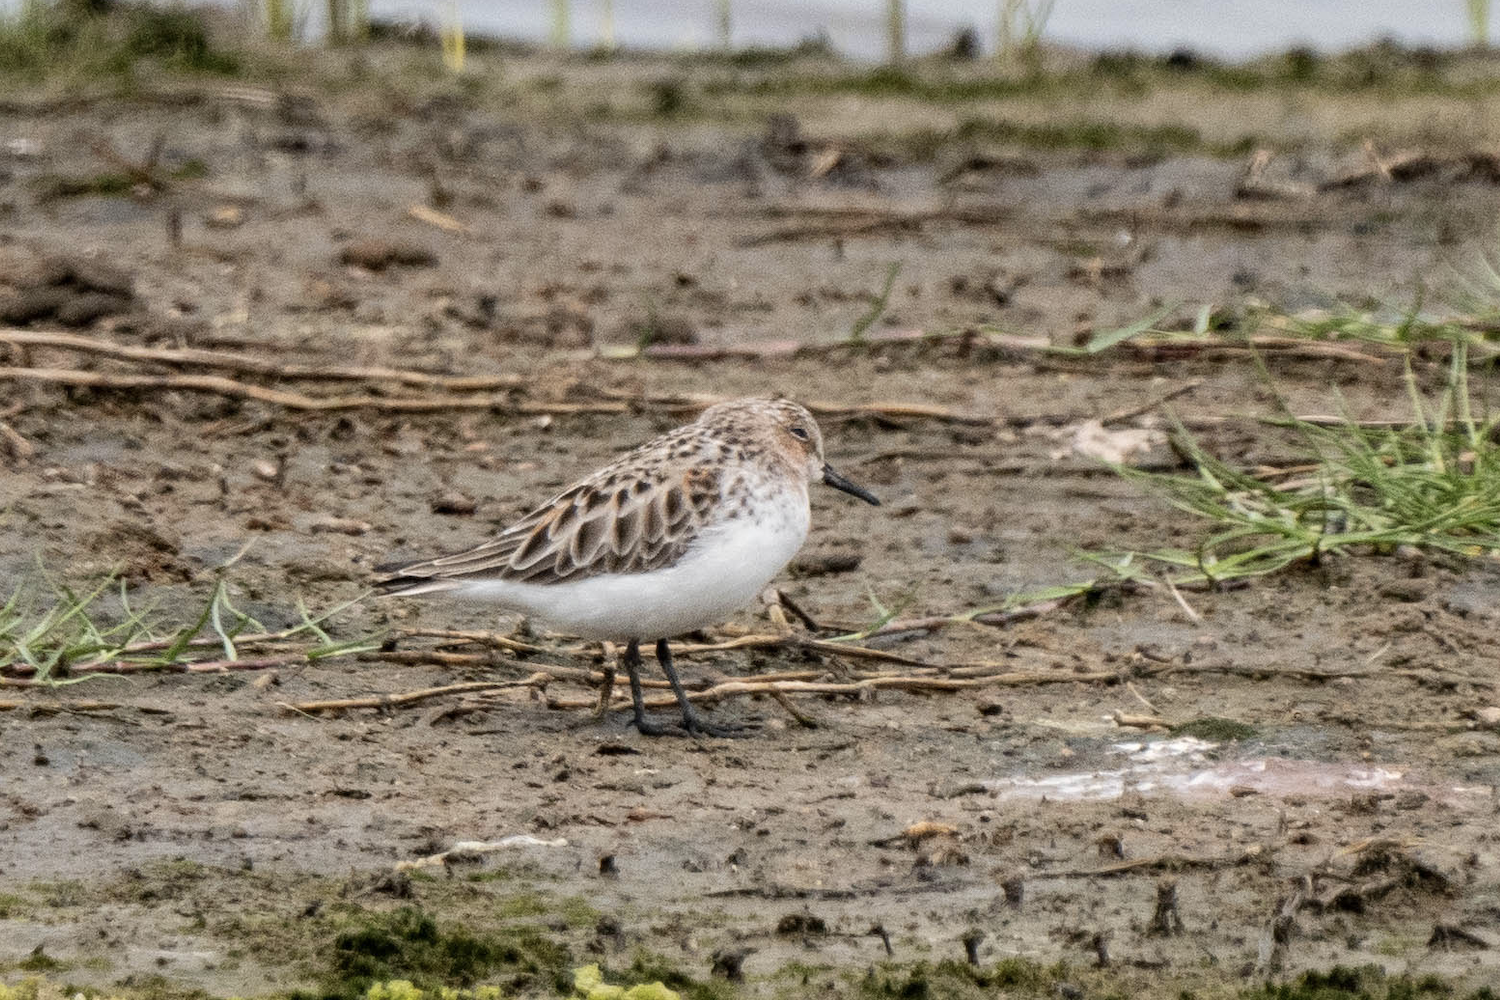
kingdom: Animalia
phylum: Chordata
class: Aves
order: Charadriiformes
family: Scolopacidae
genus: Calidris
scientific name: Calidris ruficollis
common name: Red-necked stint
